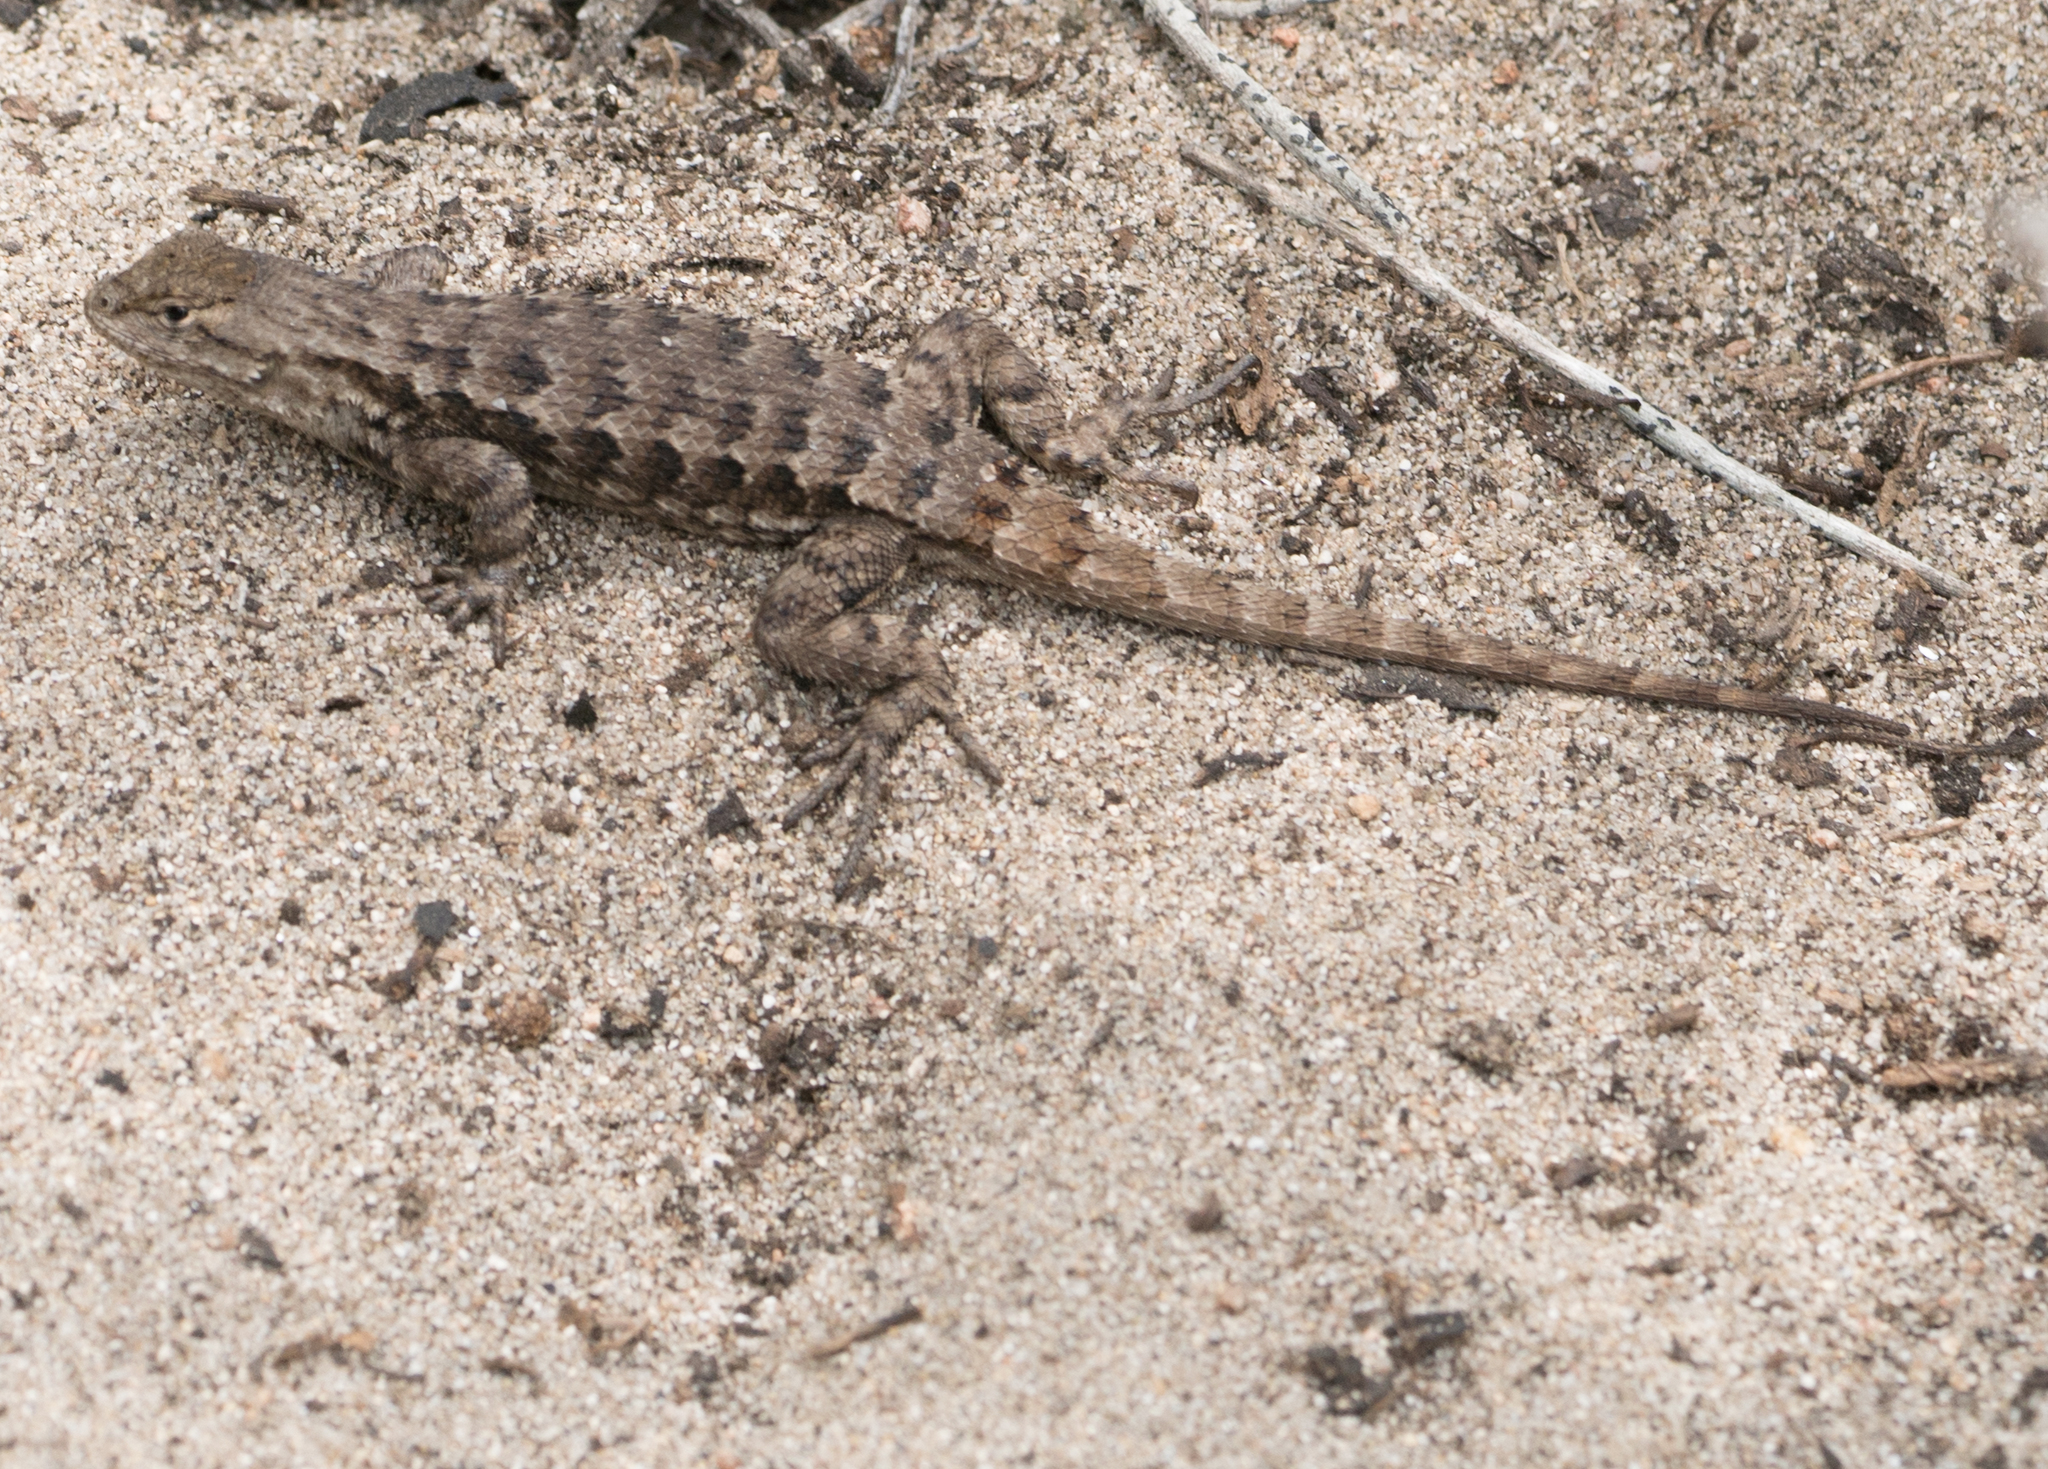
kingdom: Animalia
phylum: Chordata
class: Squamata
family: Phrynosomatidae
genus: Sceloporus
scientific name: Sceloporus occidentalis
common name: Western fence lizard
